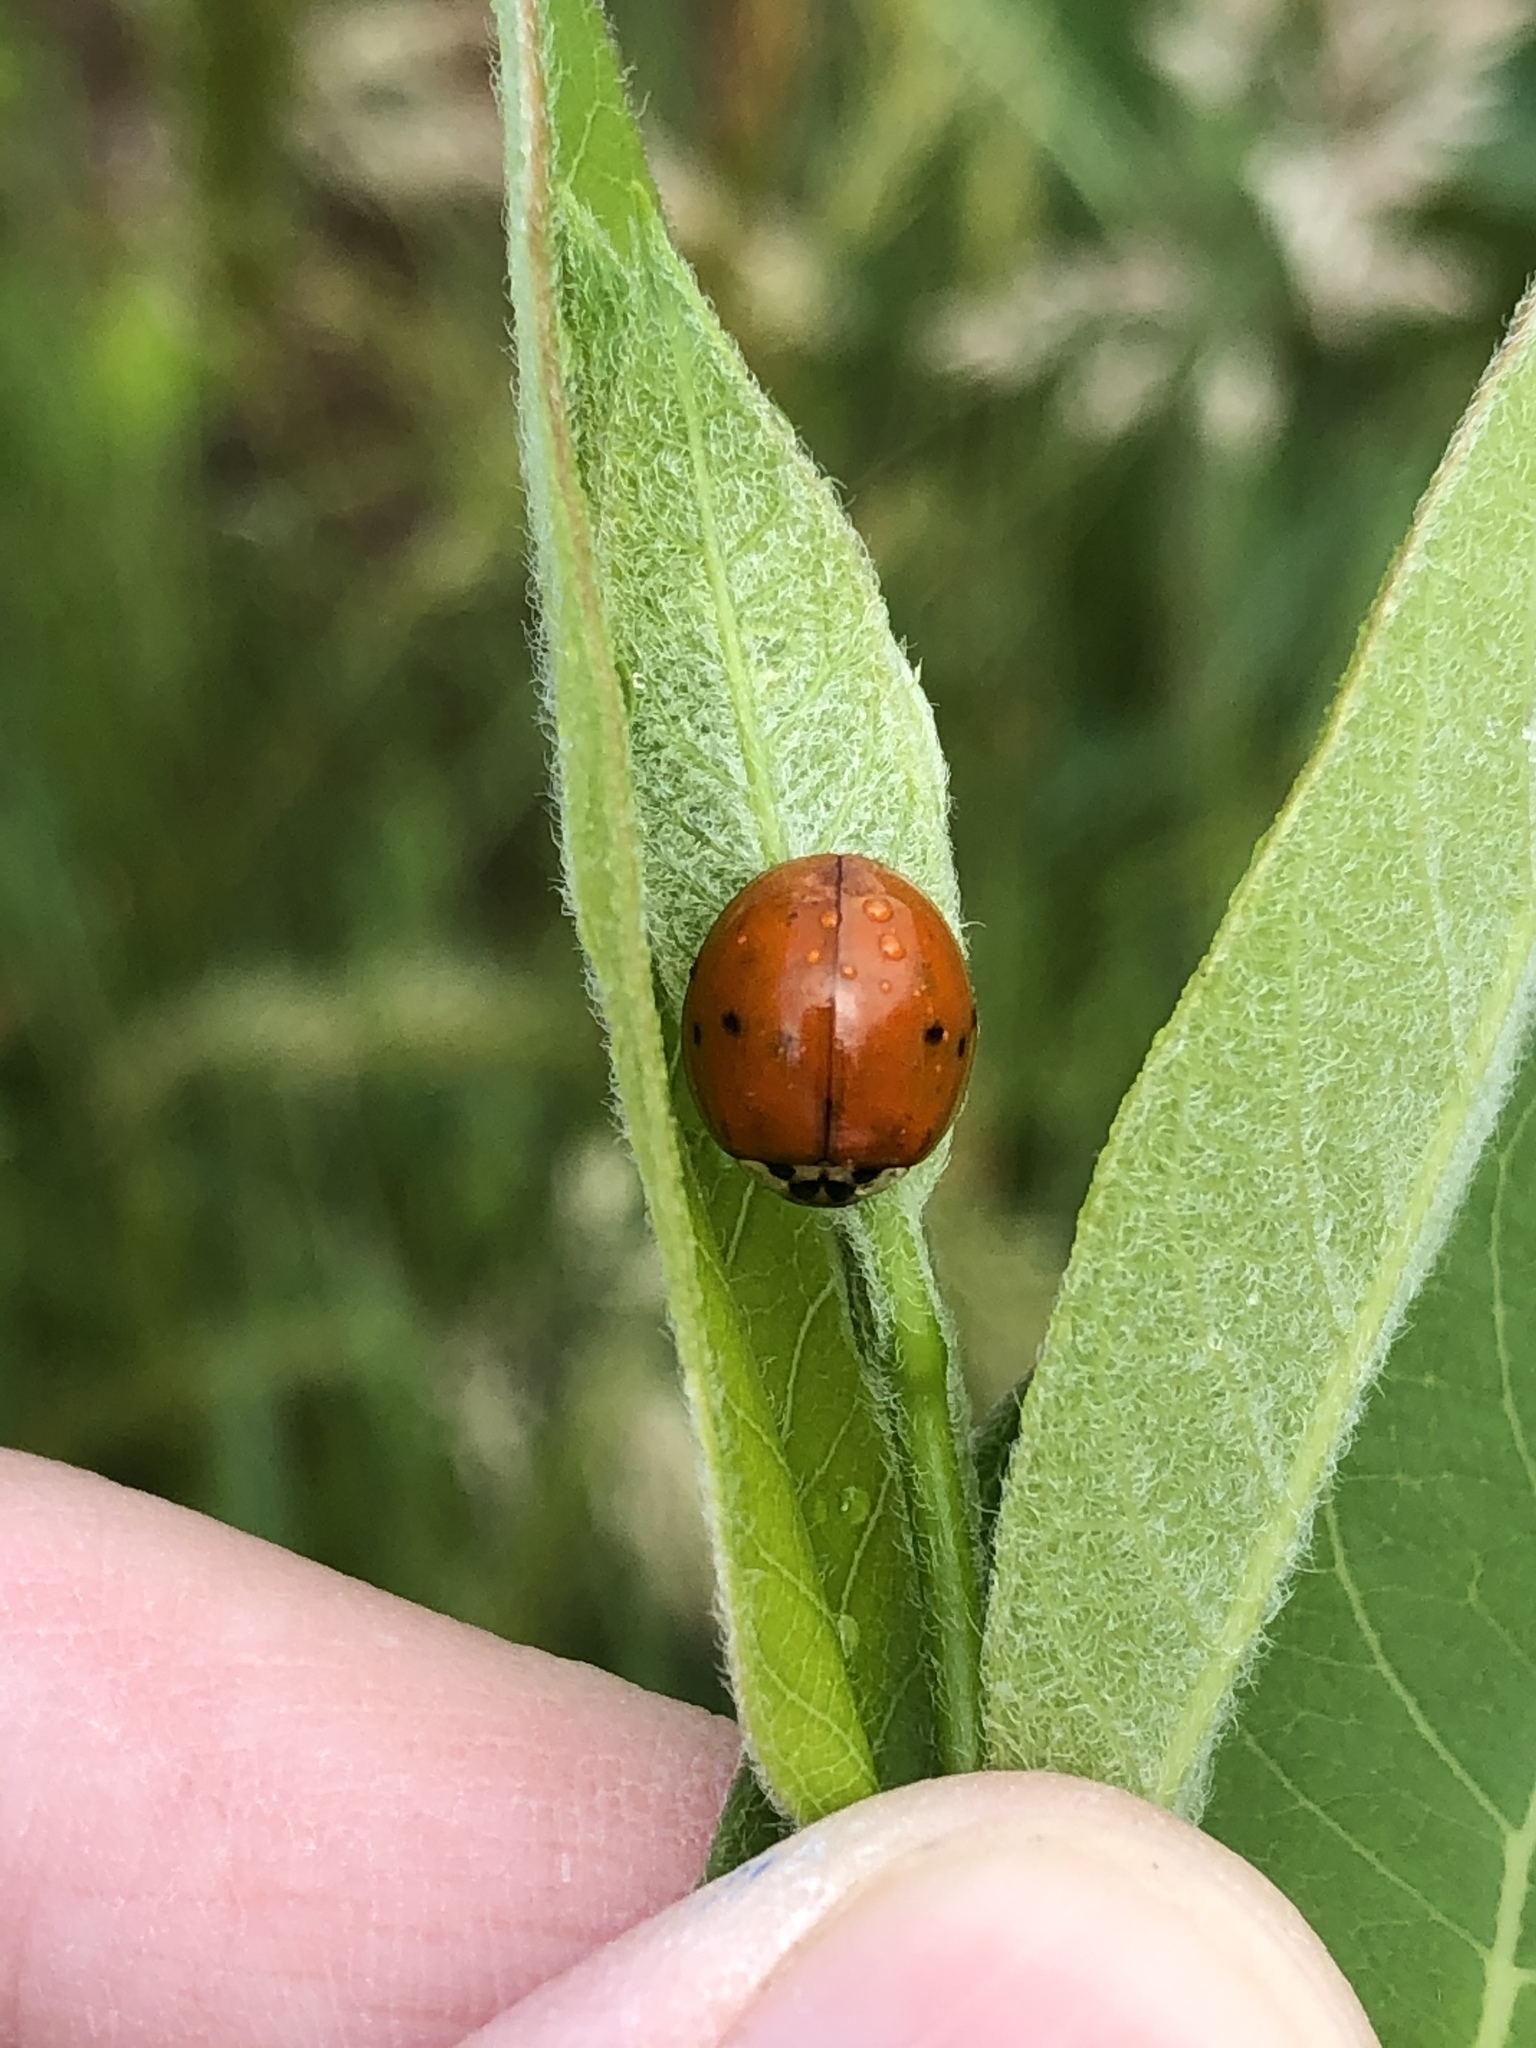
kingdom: Animalia
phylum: Arthropoda
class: Insecta
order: Coleoptera
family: Coccinellidae
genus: Harmonia
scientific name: Harmonia axyridis
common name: Harlequin ladybird
